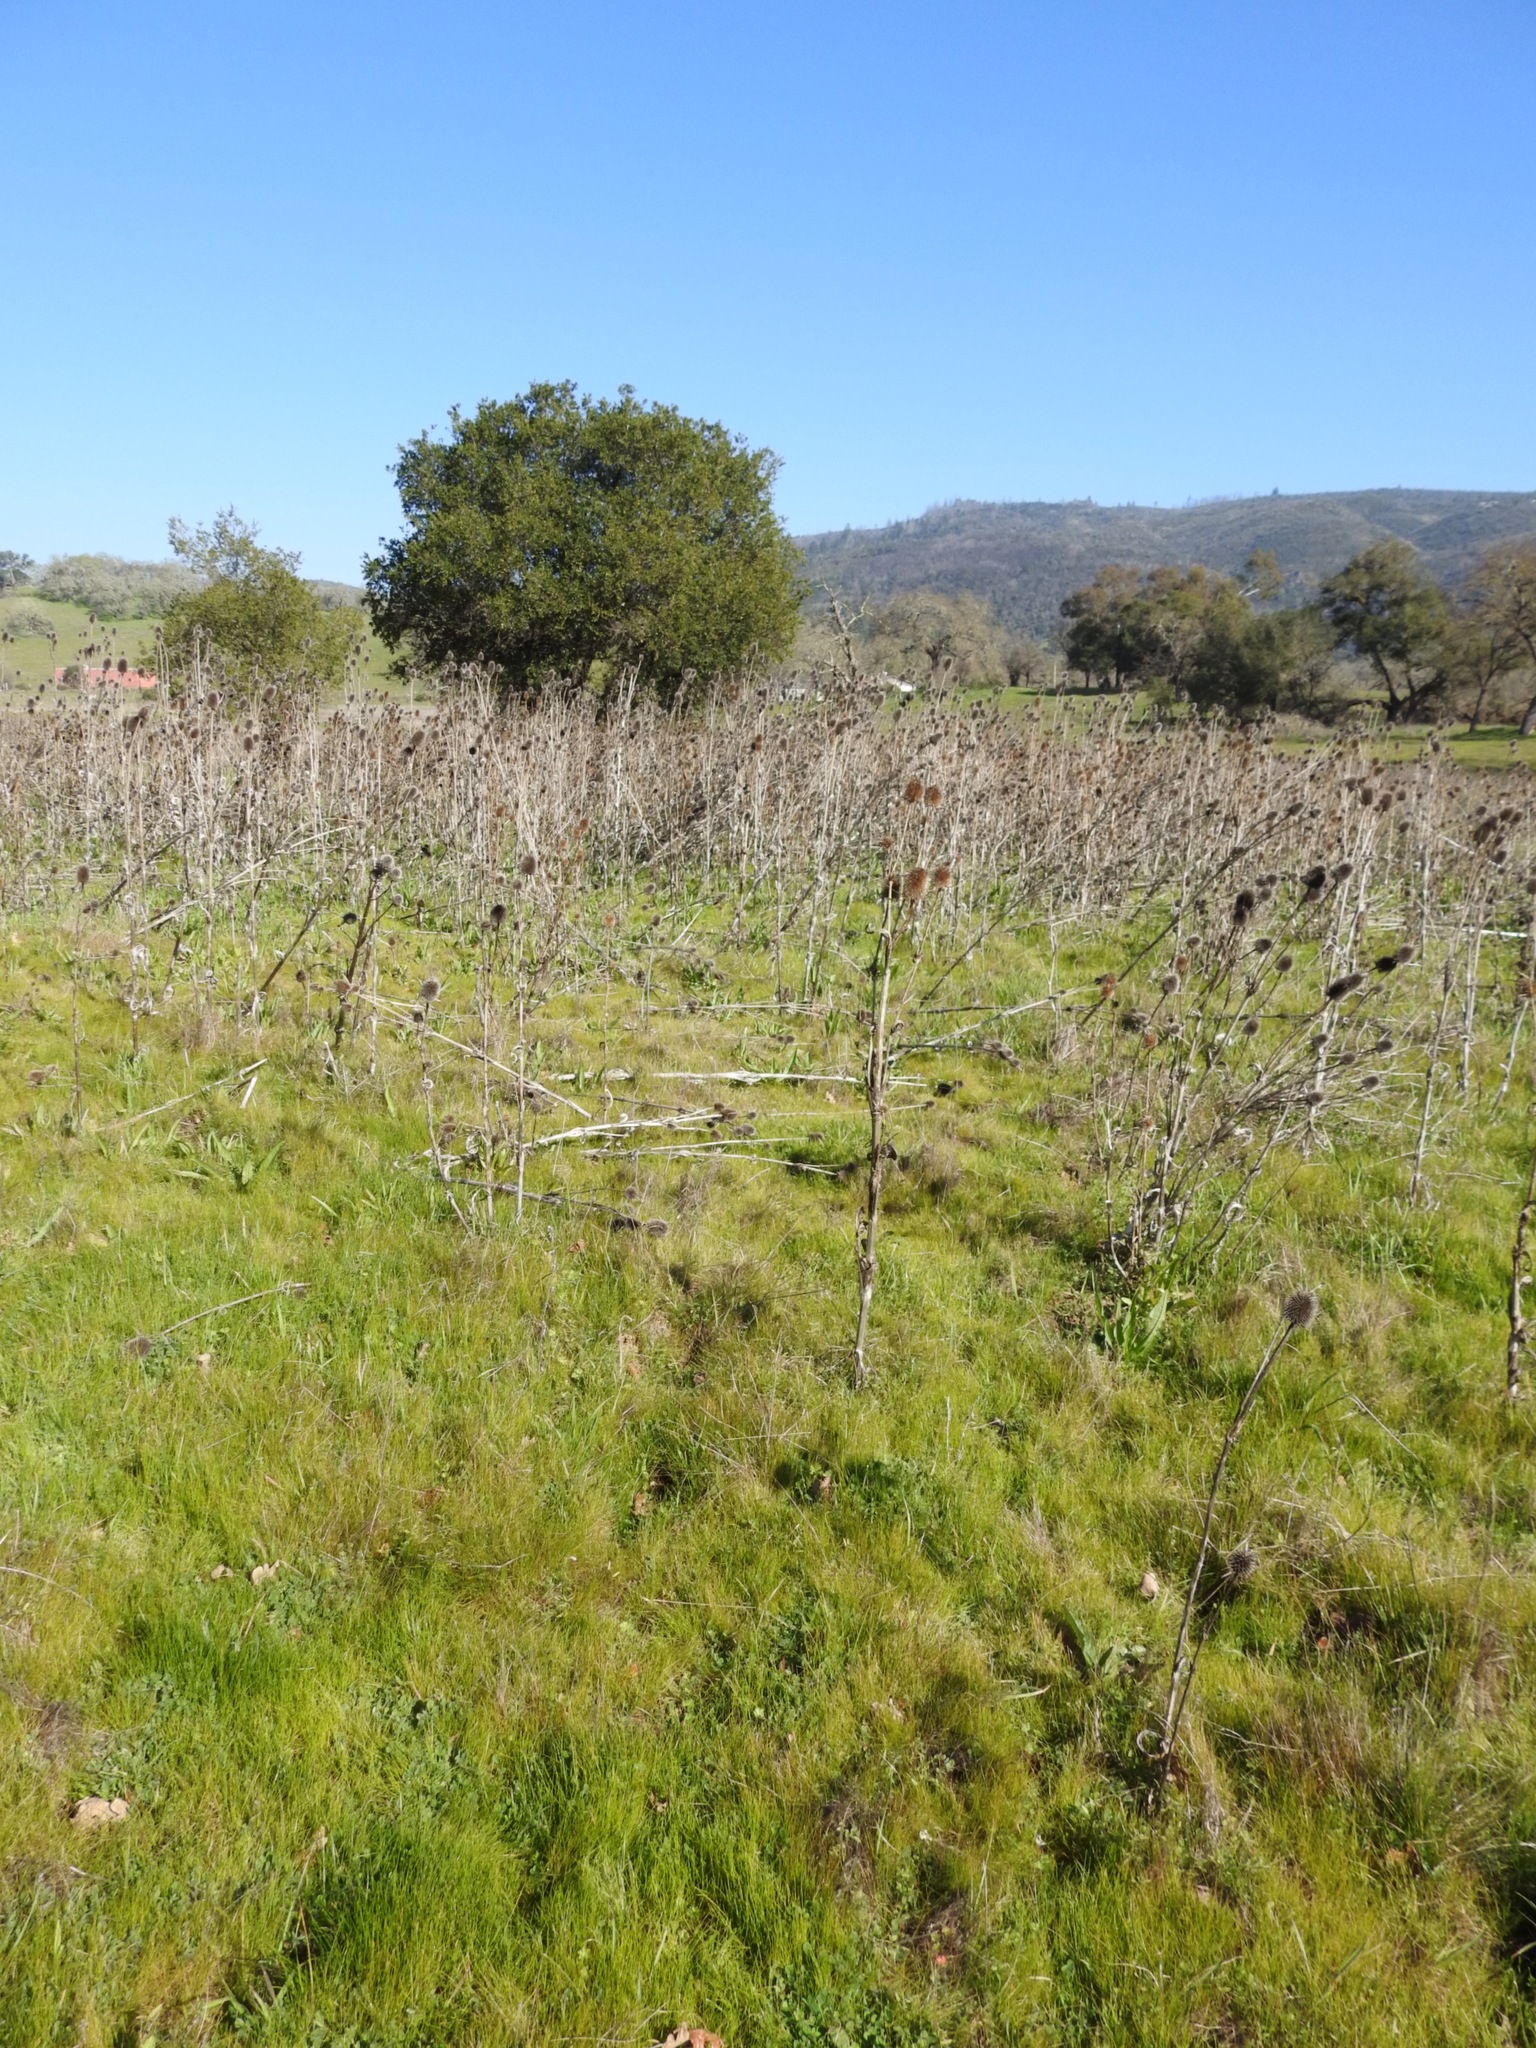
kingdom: Plantae
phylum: Tracheophyta
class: Magnoliopsida
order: Dipsacales
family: Caprifoliaceae
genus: Dipsacus
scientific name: Dipsacus sativus
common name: Fuller's teasel
